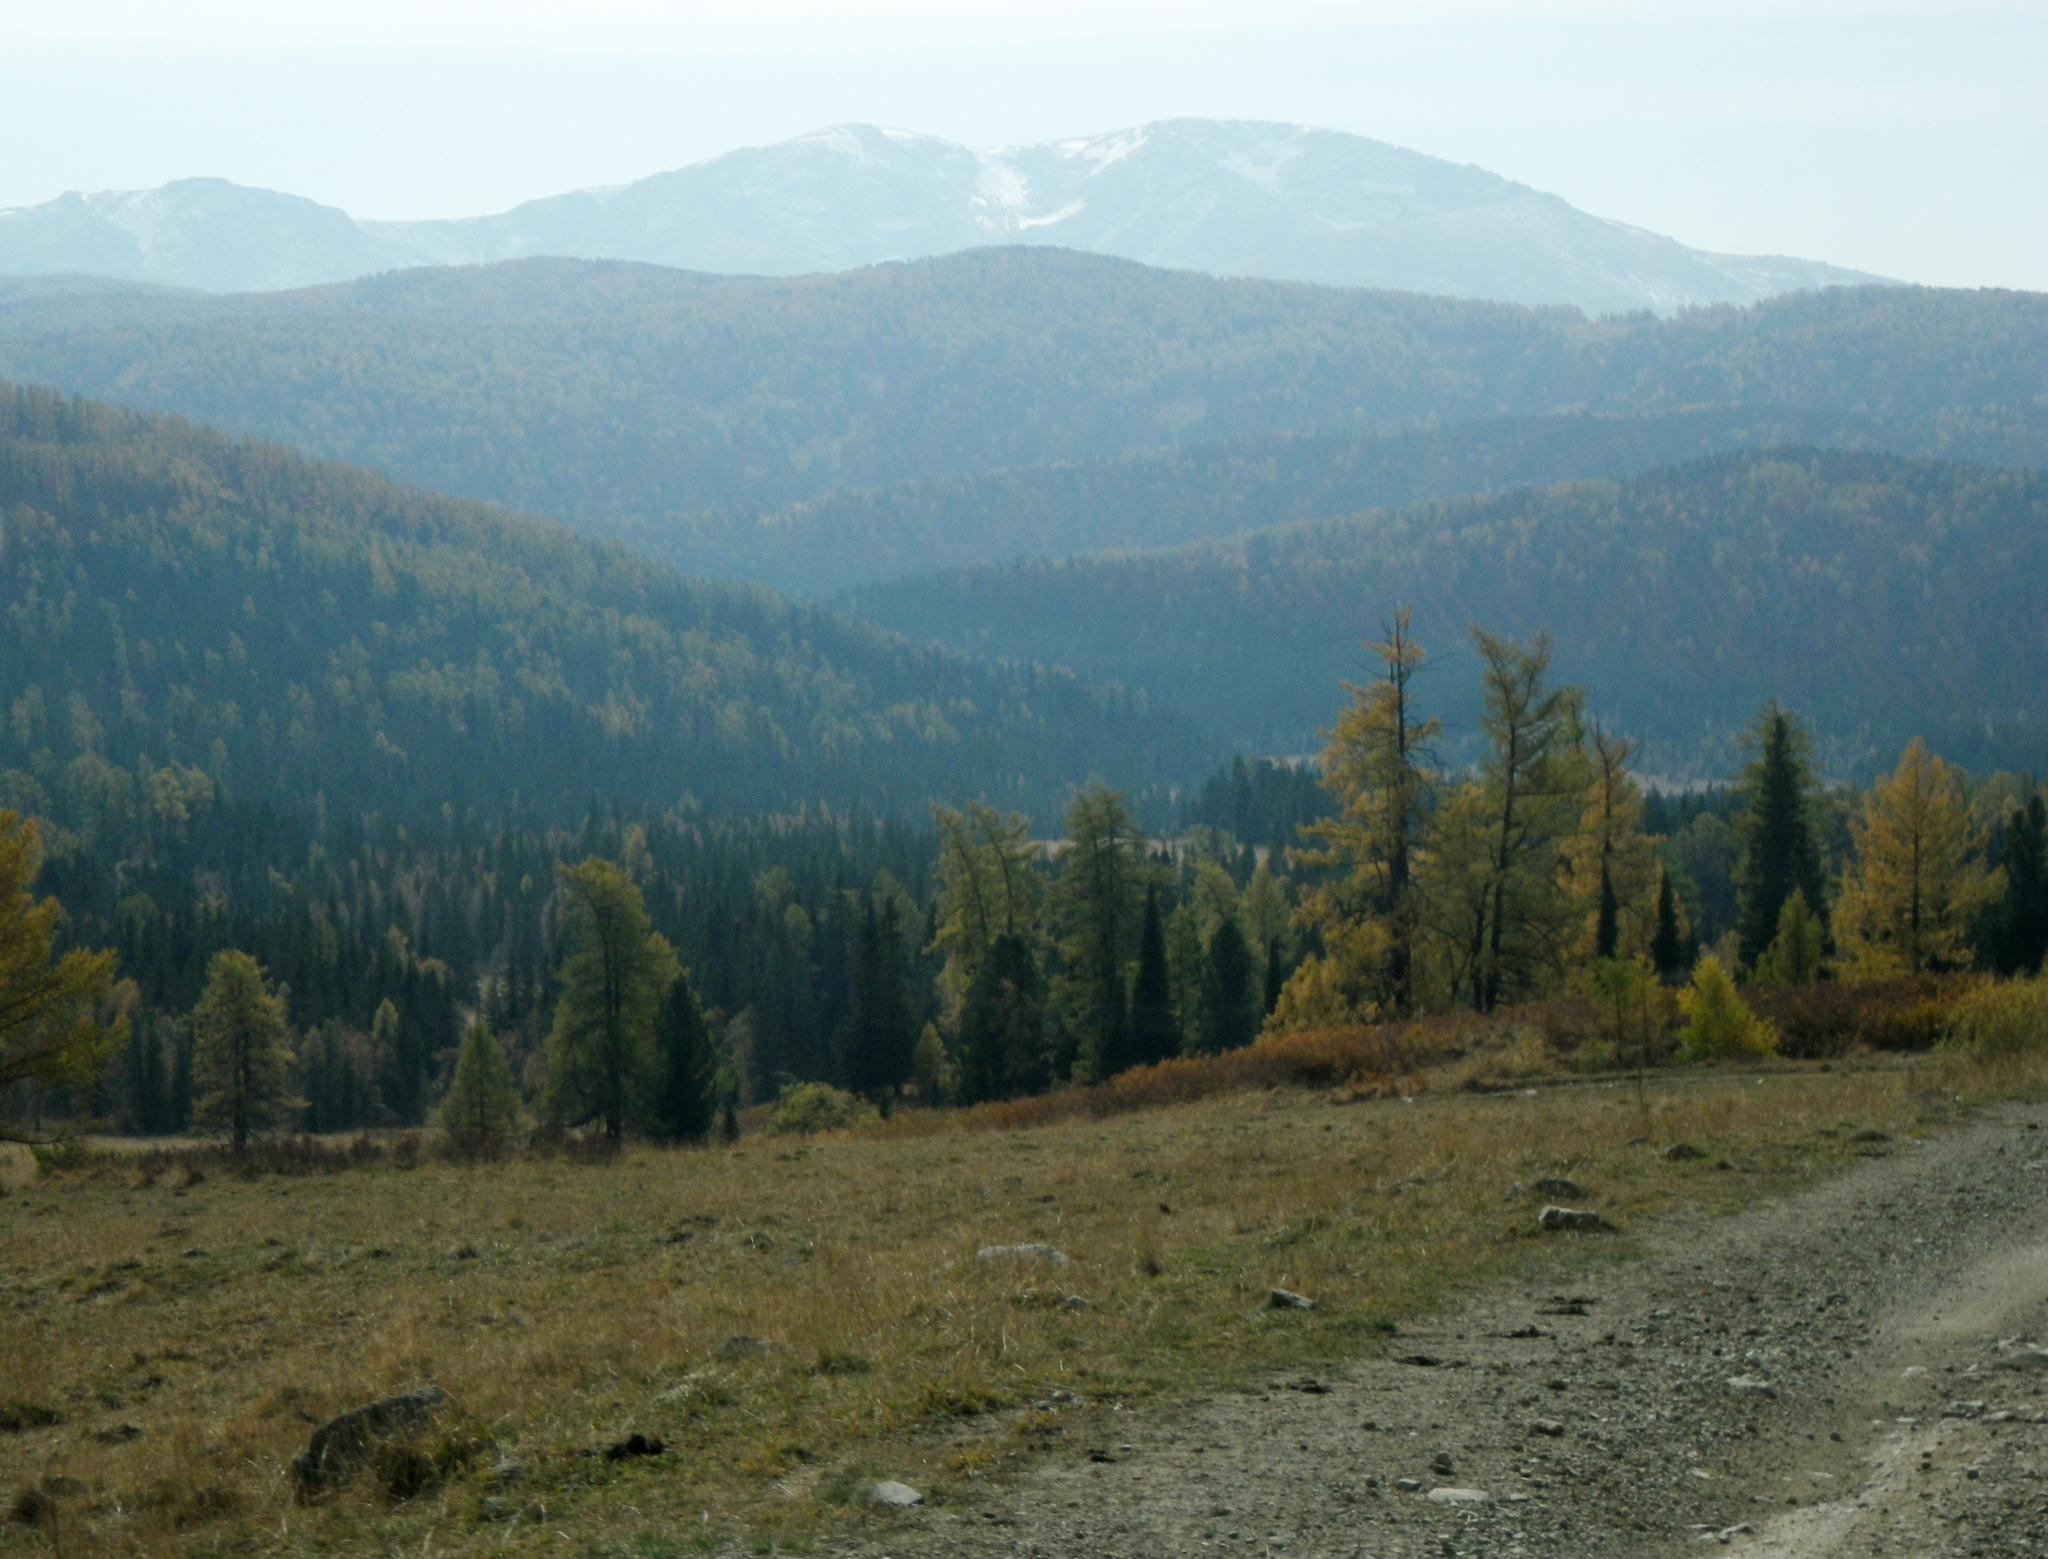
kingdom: Plantae
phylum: Tracheophyta
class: Pinopsida
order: Pinales
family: Pinaceae
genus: Larix
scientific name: Larix sibirica
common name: Siberian larch
